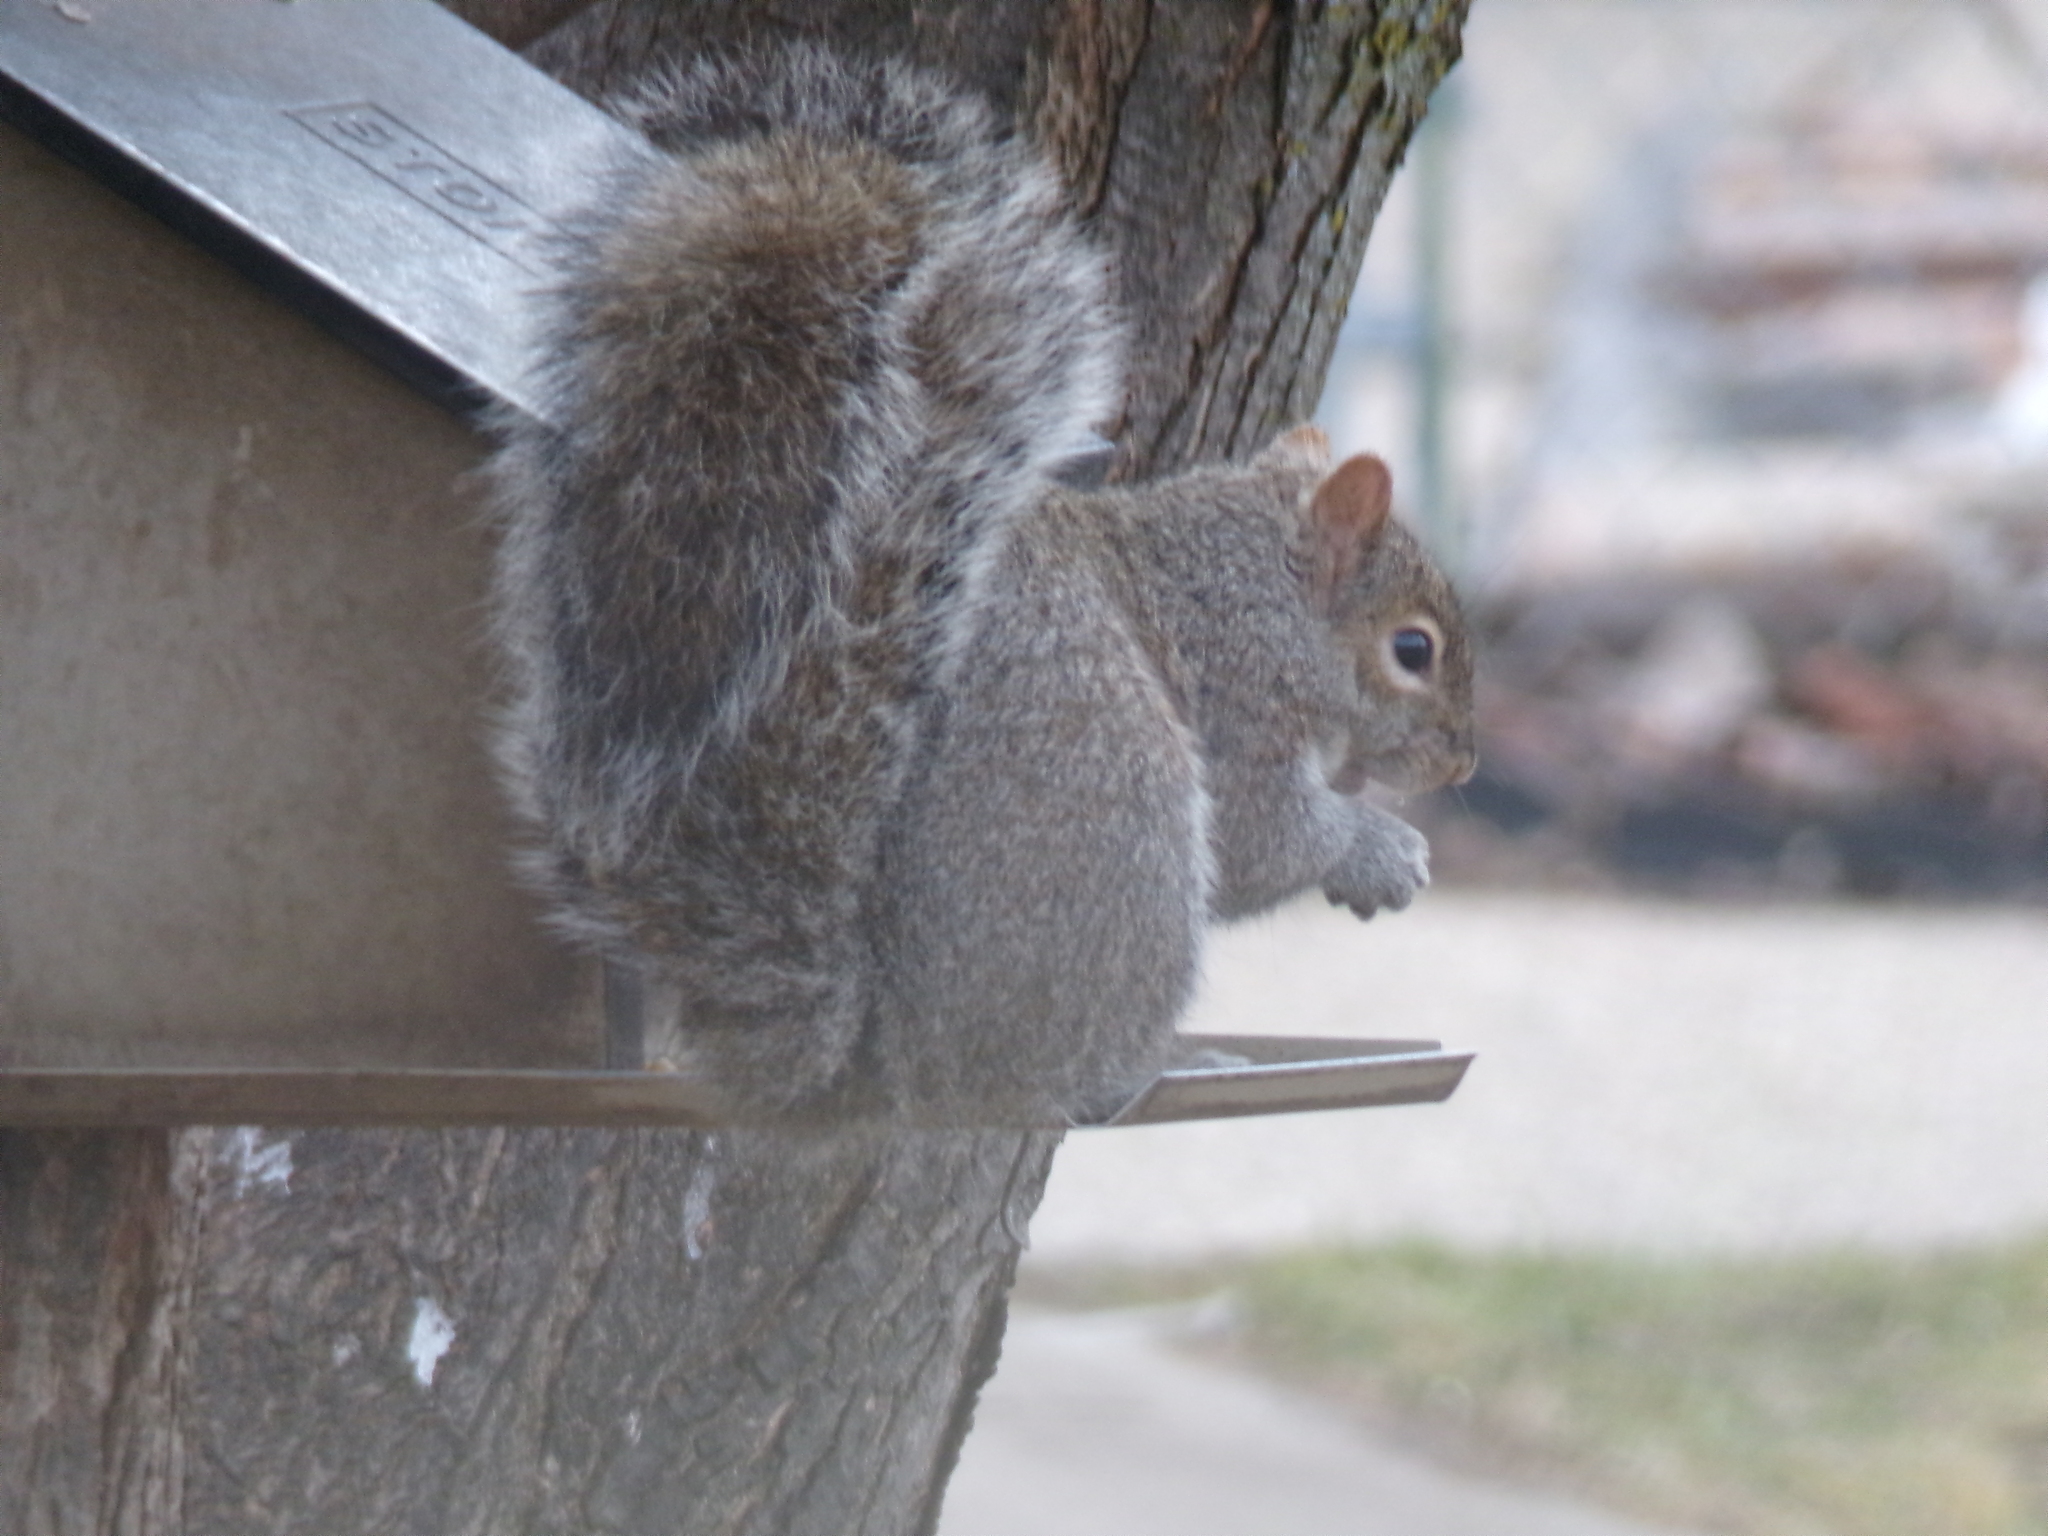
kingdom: Animalia
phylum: Chordata
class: Mammalia
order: Rodentia
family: Sciuridae
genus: Sciurus
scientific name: Sciurus carolinensis
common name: Eastern gray squirrel
